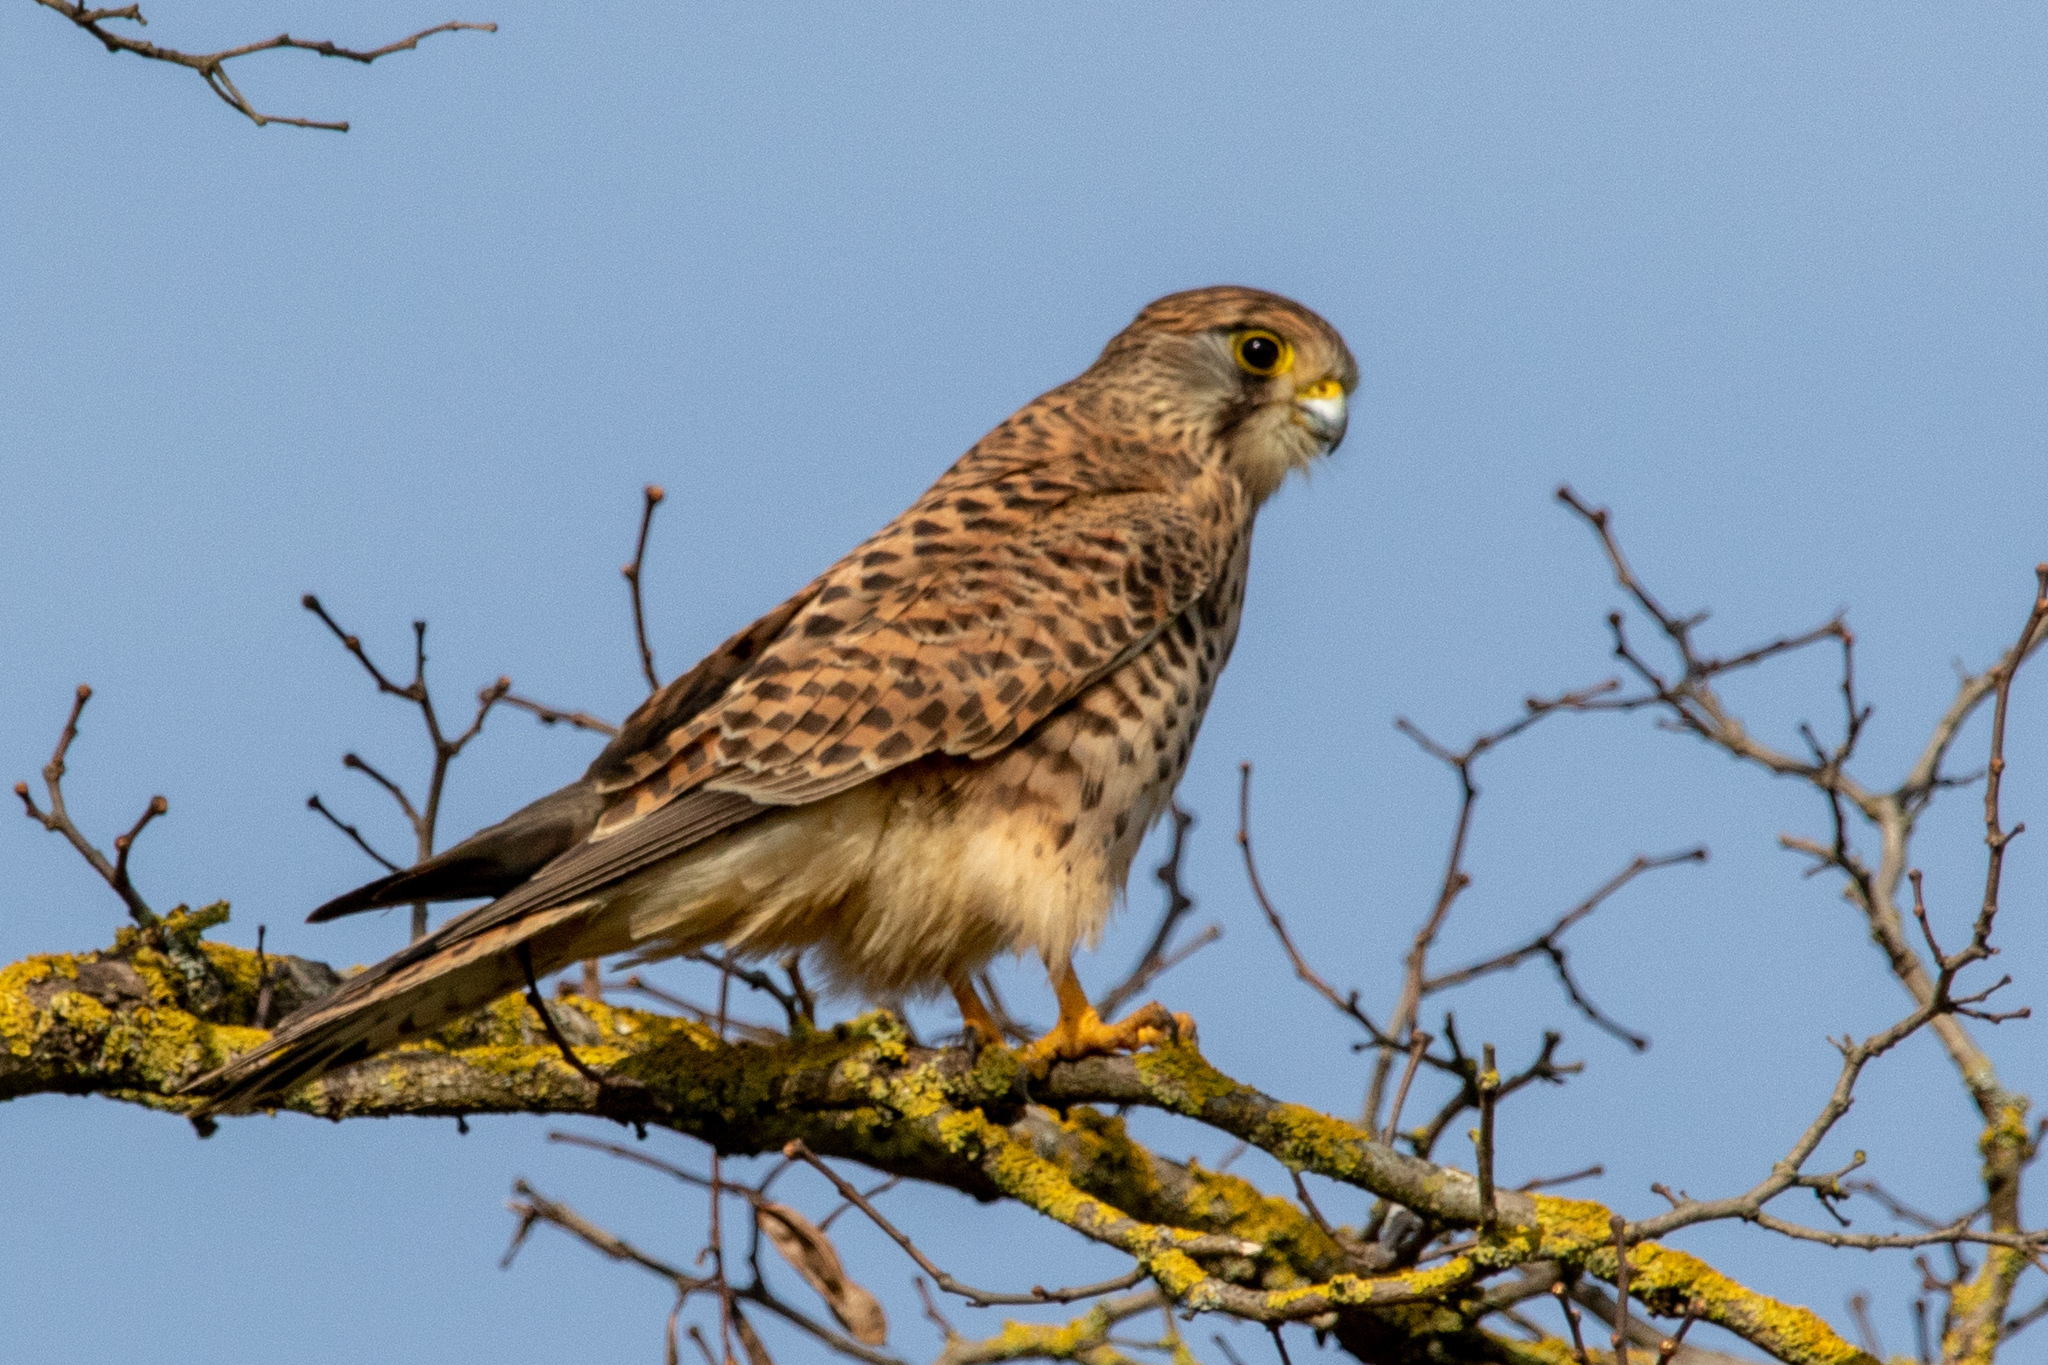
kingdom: Animalia
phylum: Chordata
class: Aves
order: Falconiformes
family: Falconidae
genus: Falco
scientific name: Falco tinnunculus
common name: Common kestrel
